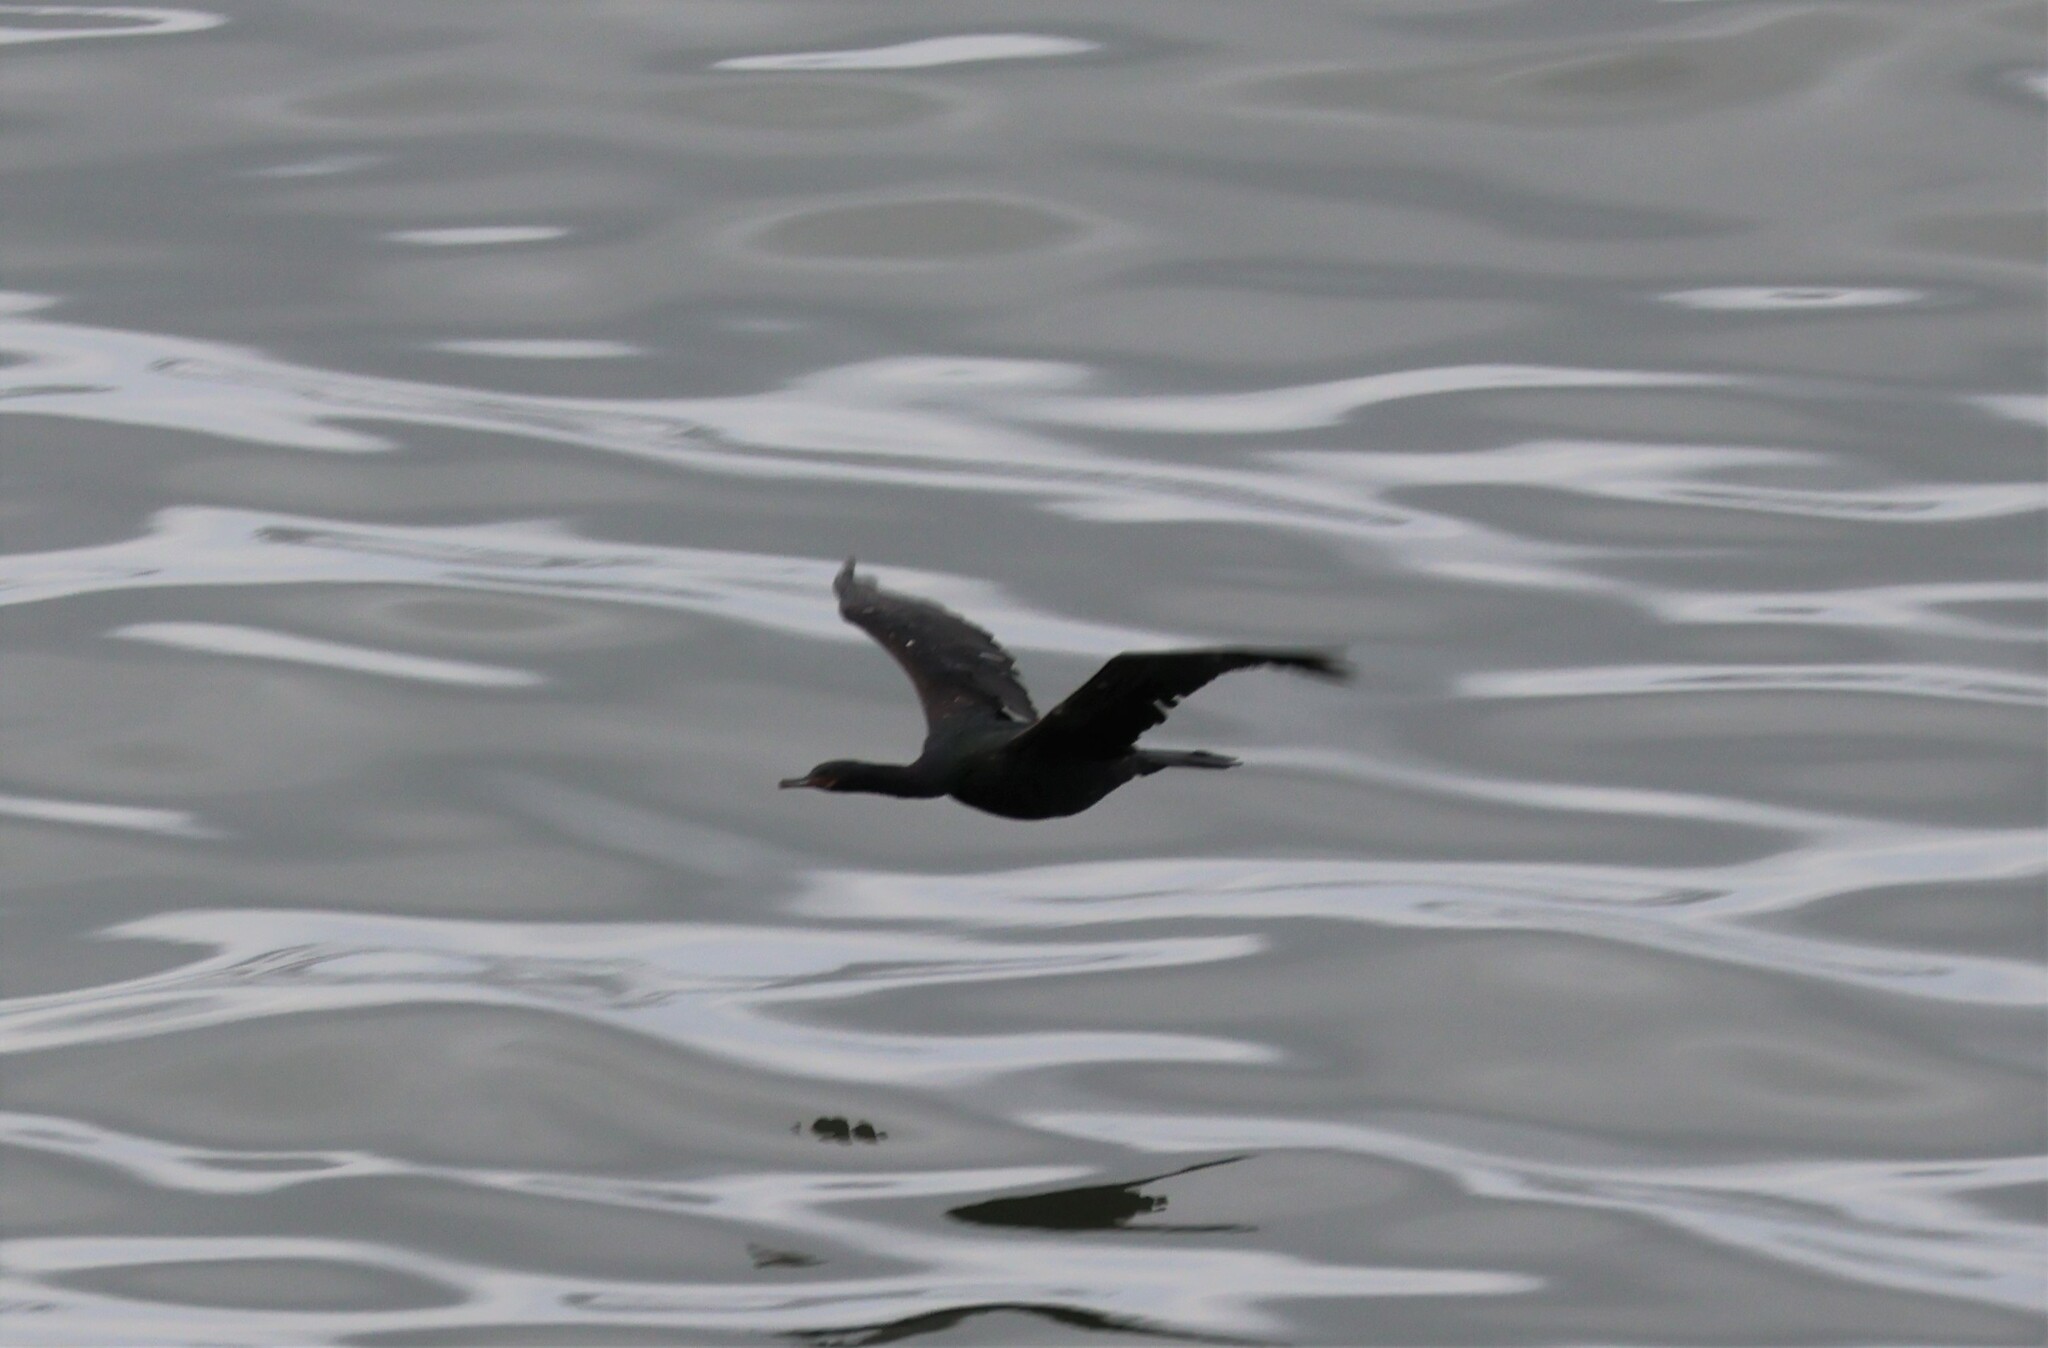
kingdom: Animalia
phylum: Chordata
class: Aves
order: Suliformes
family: Phalacrocoracidae
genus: Phalacrocorax
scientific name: Phalacrocorax pelagicus
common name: Pelagic cormorant
